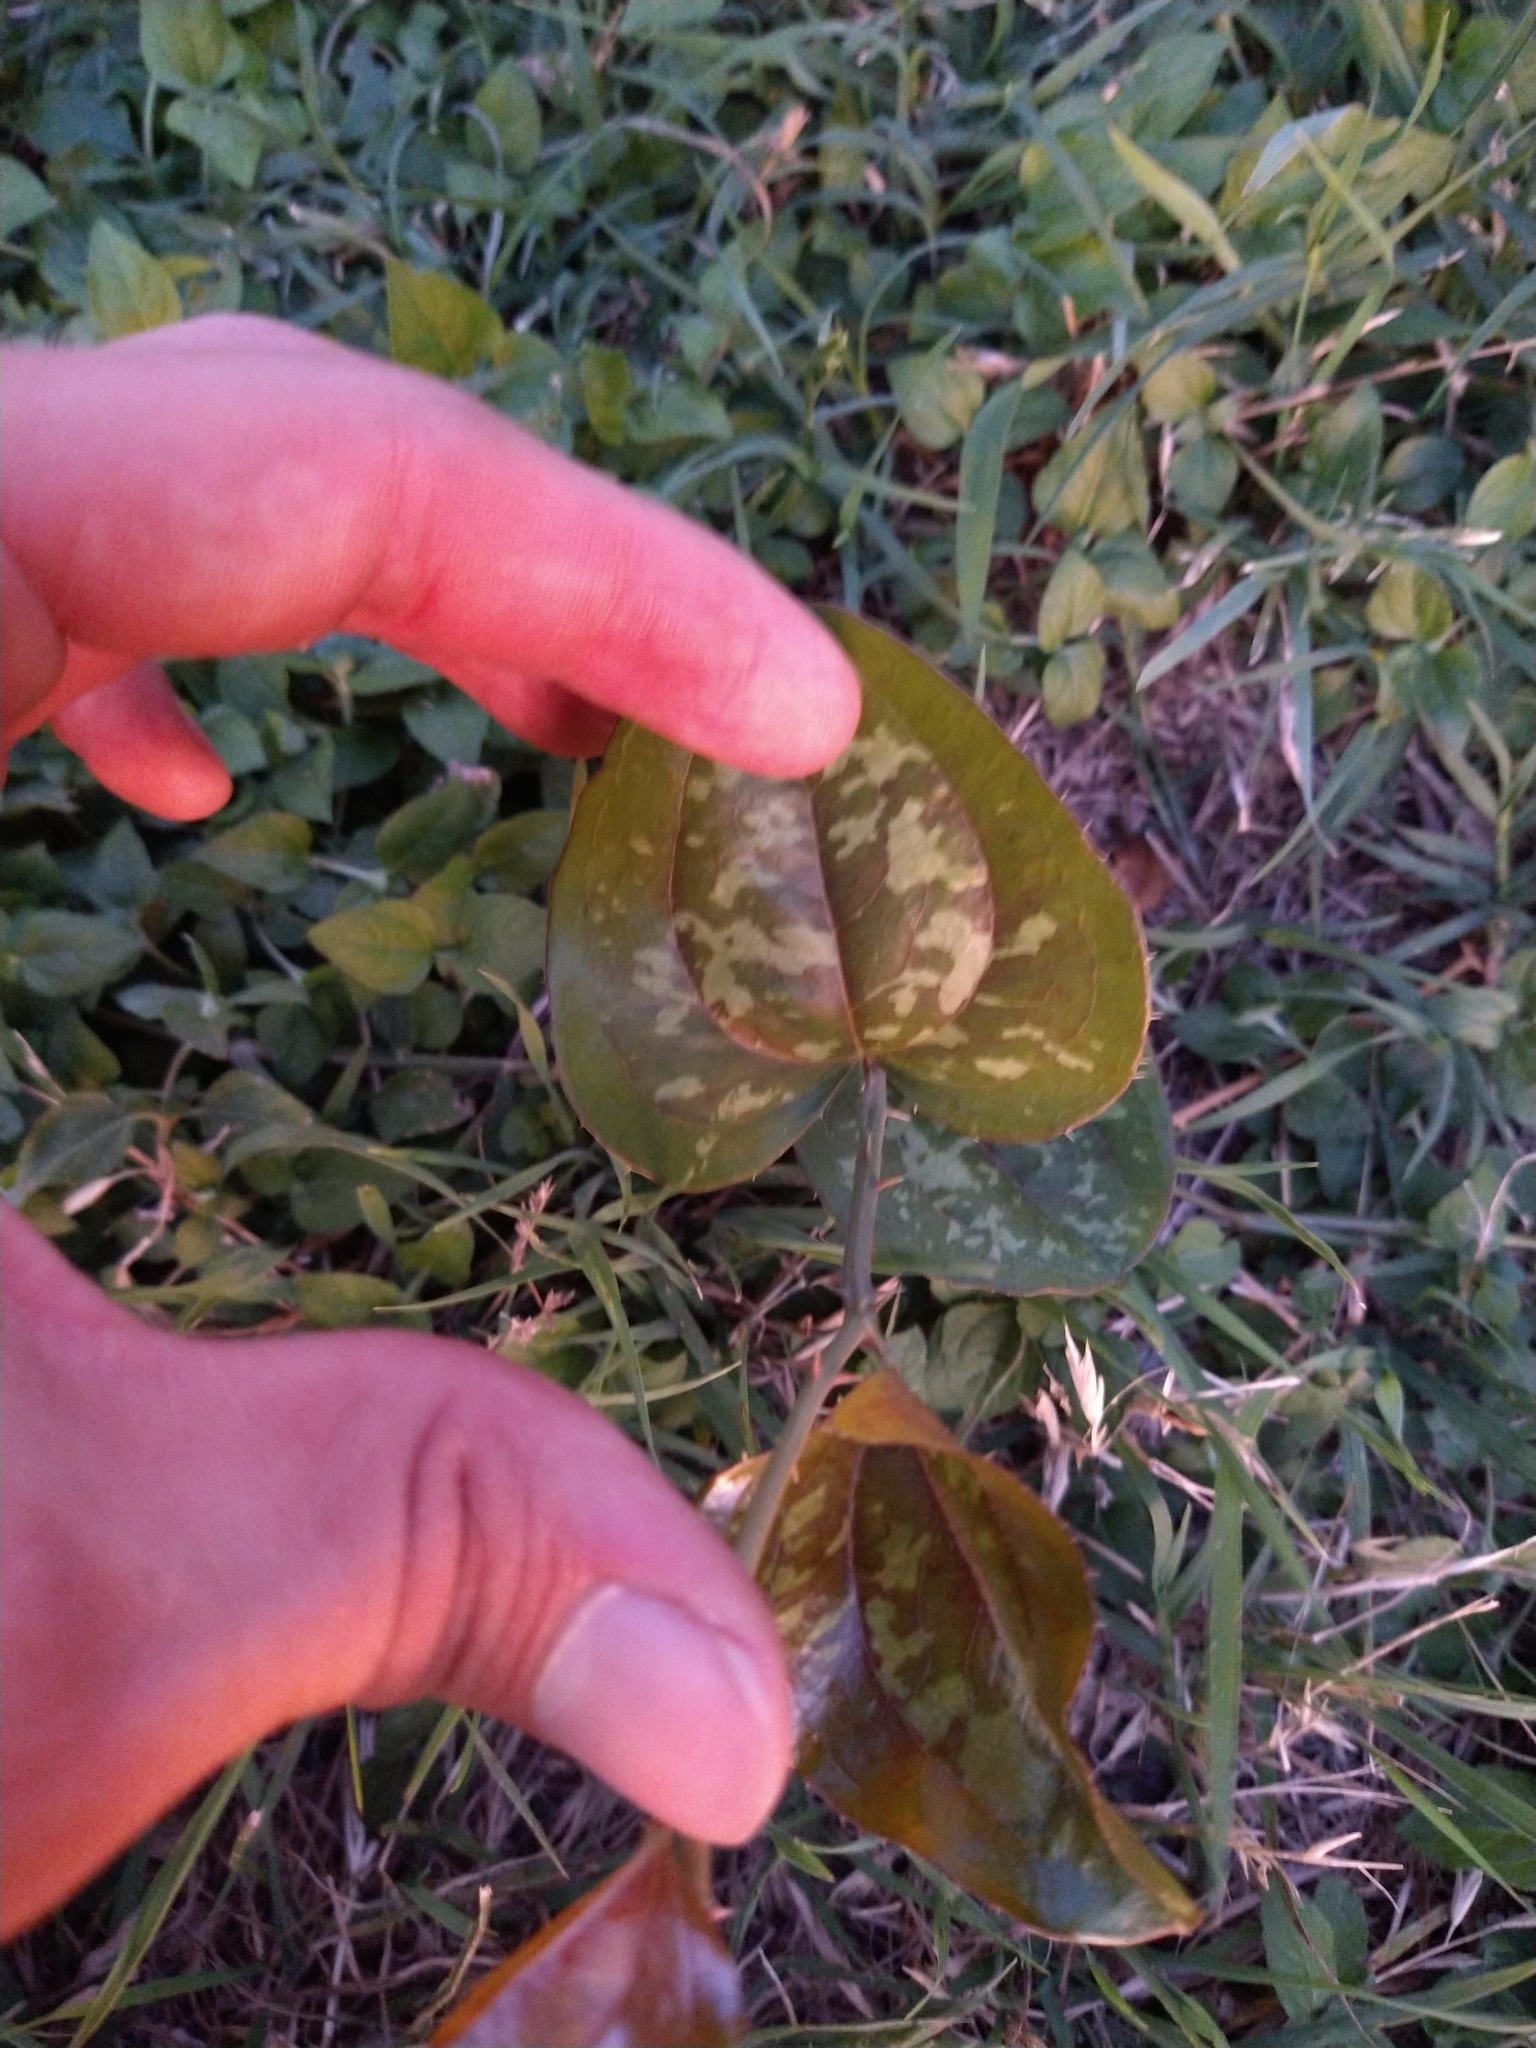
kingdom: Plantae
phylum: Tracheophyta
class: Liliopsida
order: Liliales
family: Smilacaceae
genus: Smilax
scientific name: Smilax bona-nox
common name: Catbrier
